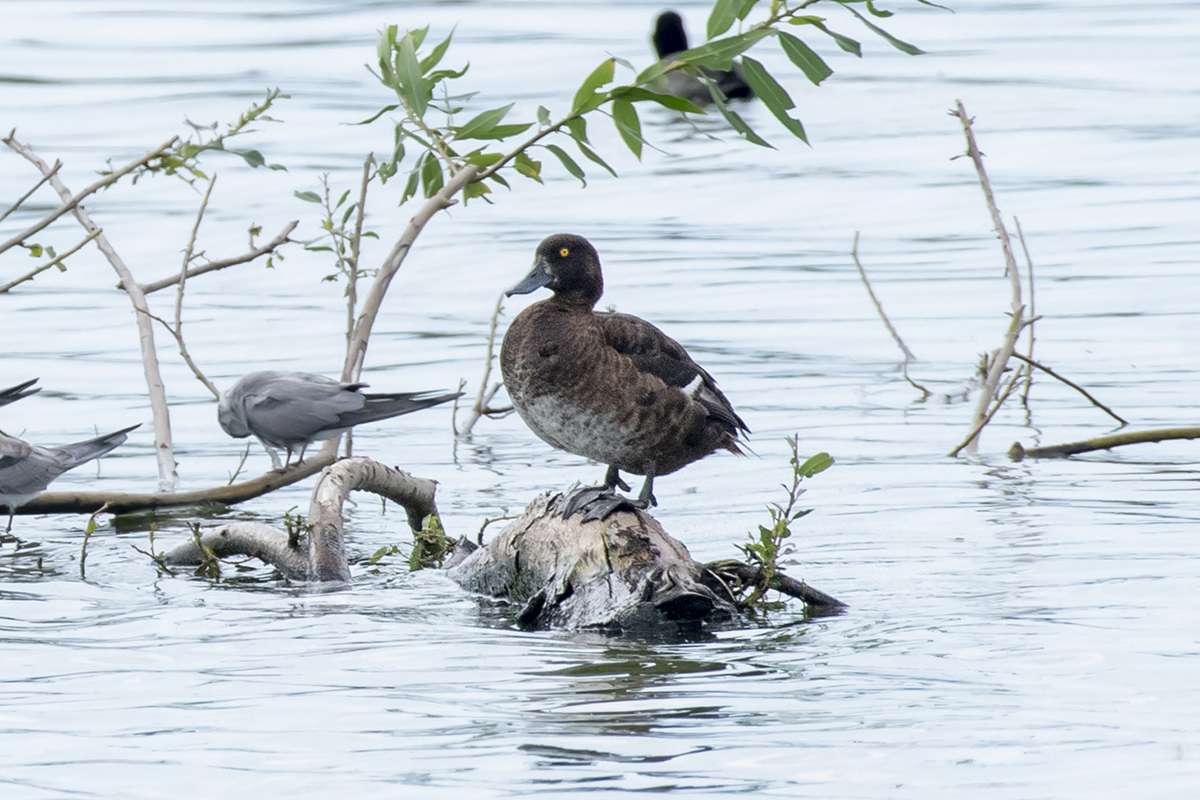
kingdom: Animalia
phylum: Chordata
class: Aves
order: Anseriformes
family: Anatidae
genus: Aythya
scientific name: Aythya fuligula
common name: Tufted duck
